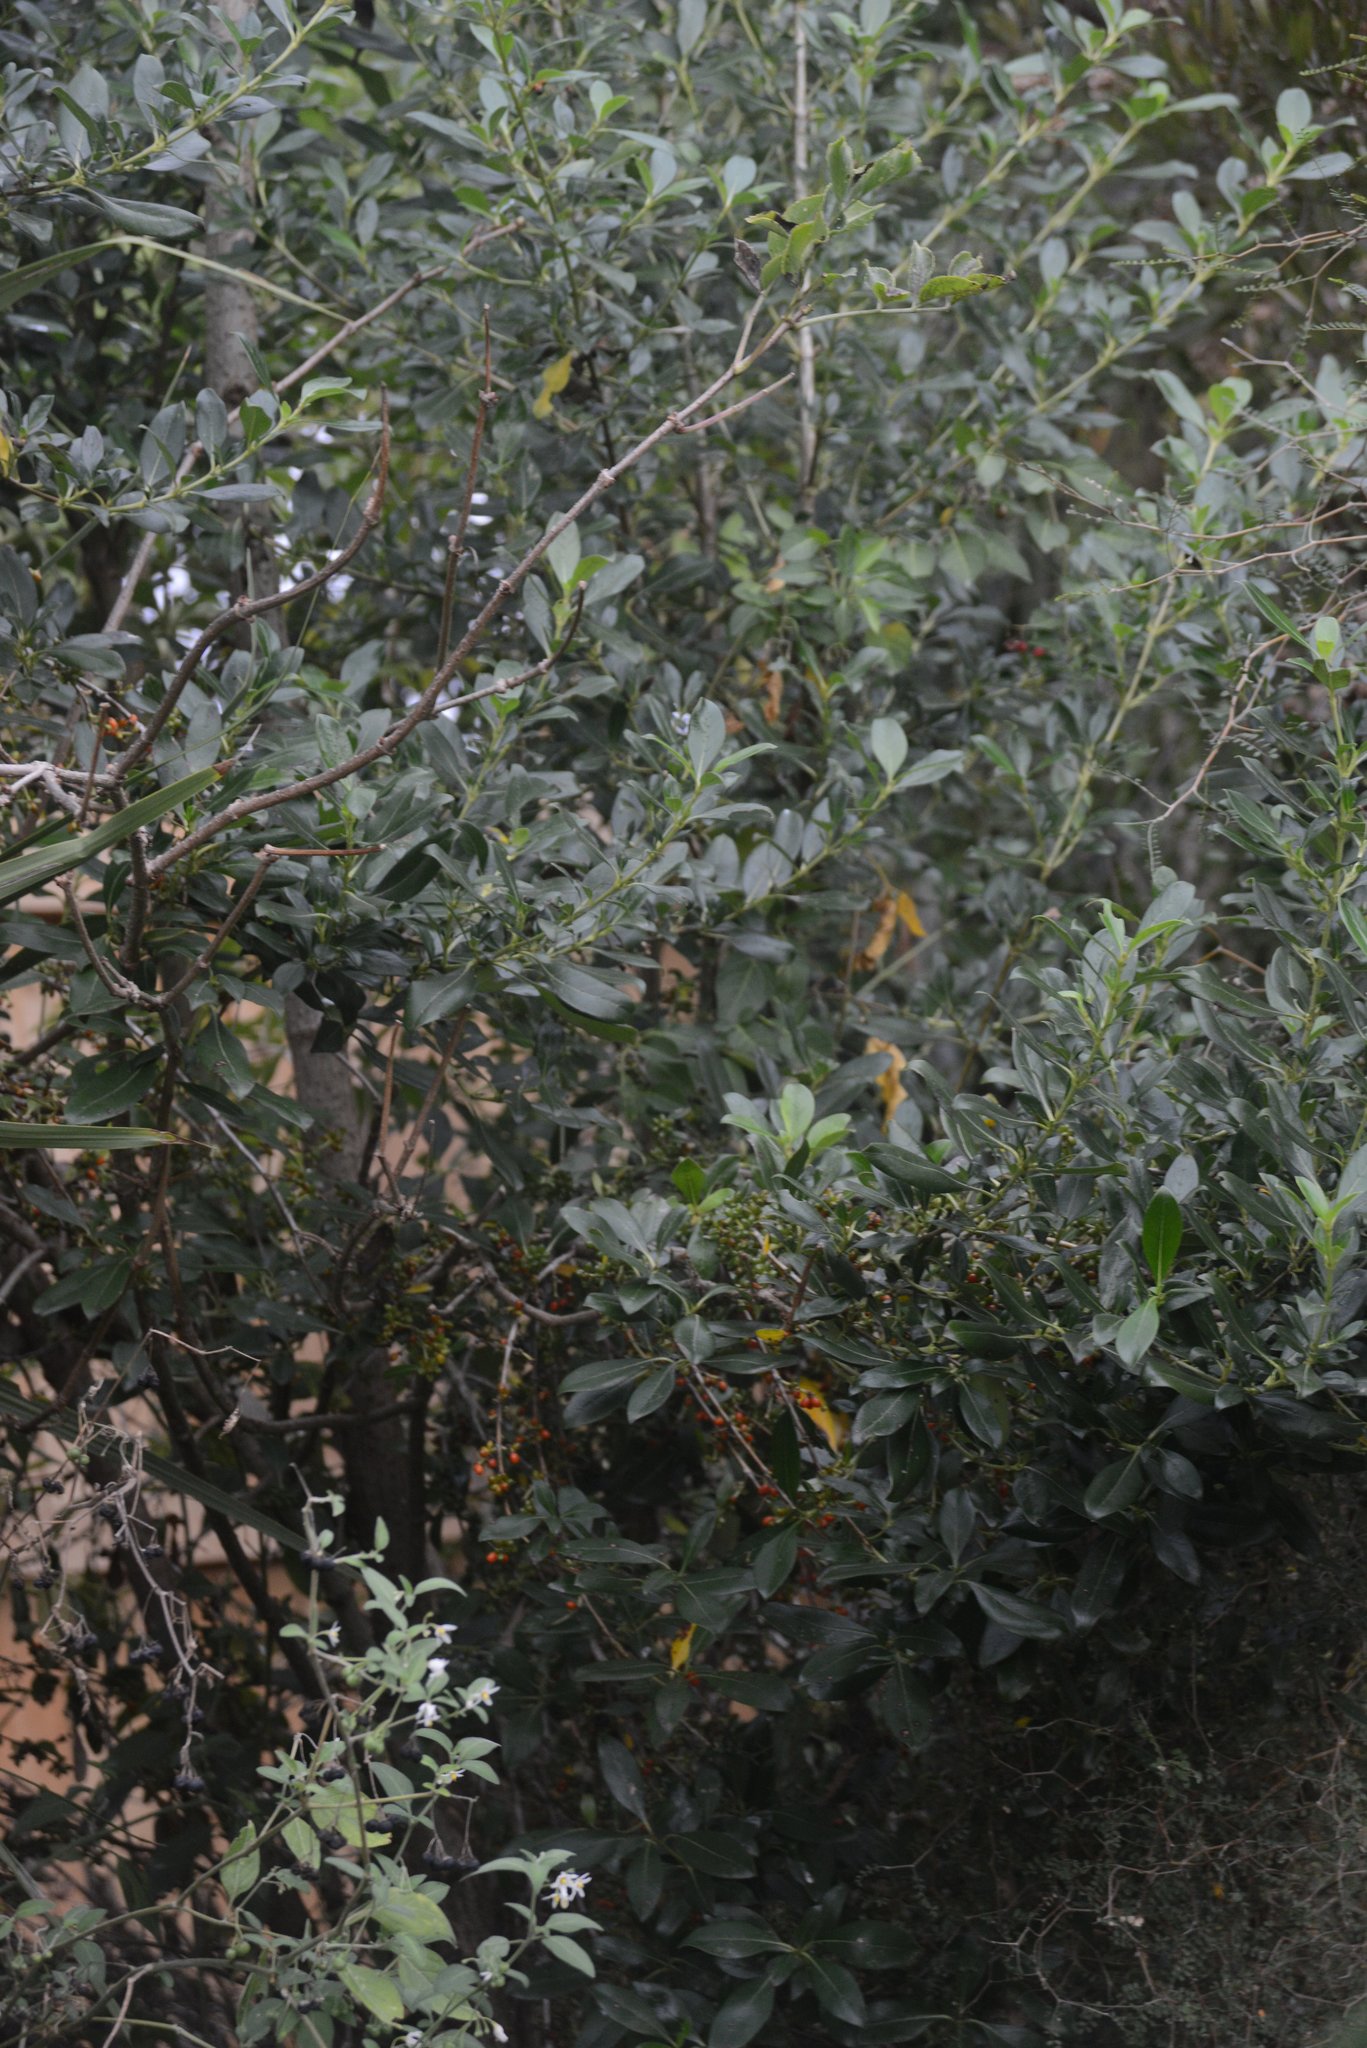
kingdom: Plantae
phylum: Tracheophyta
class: Magnoliopsida
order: Gentianales
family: Rubiaceae
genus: Coprosma
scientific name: Coprosma robusta
